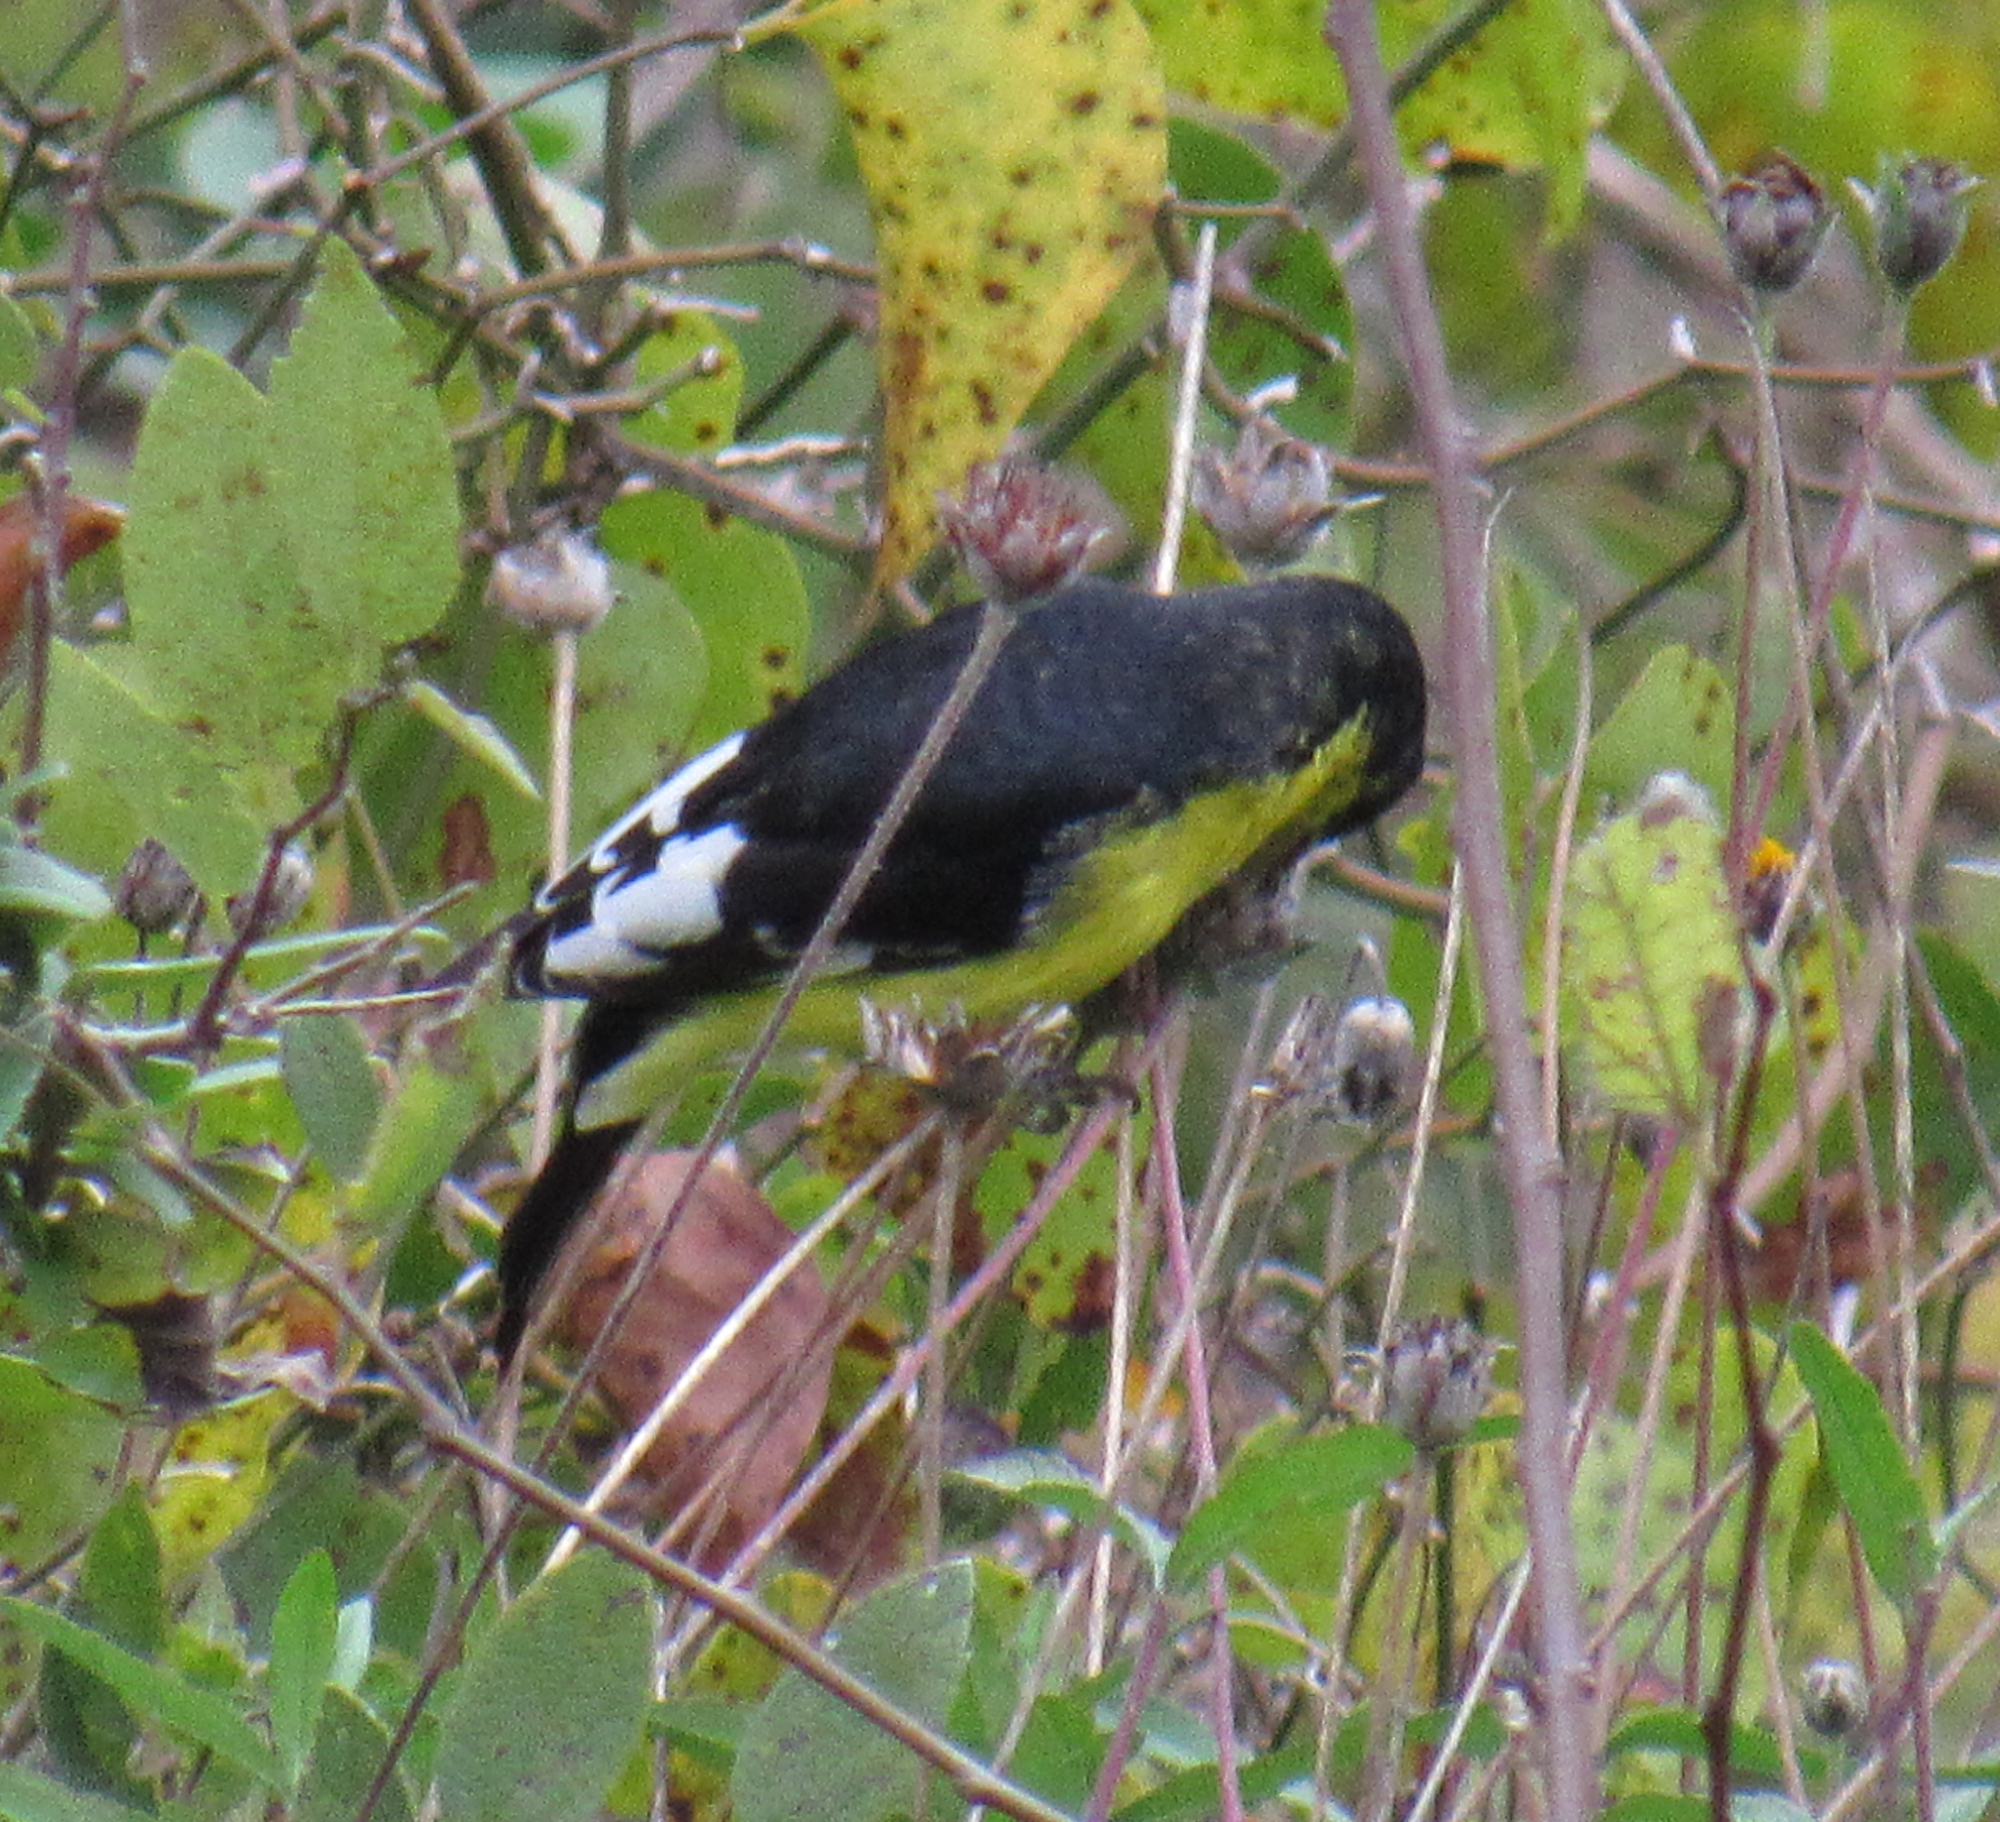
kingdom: Animalia
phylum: Chordata
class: Aves
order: Passeriformes
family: Fringillidae
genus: Spinus
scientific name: Spinus psaltria
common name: Lesser goldfinch
